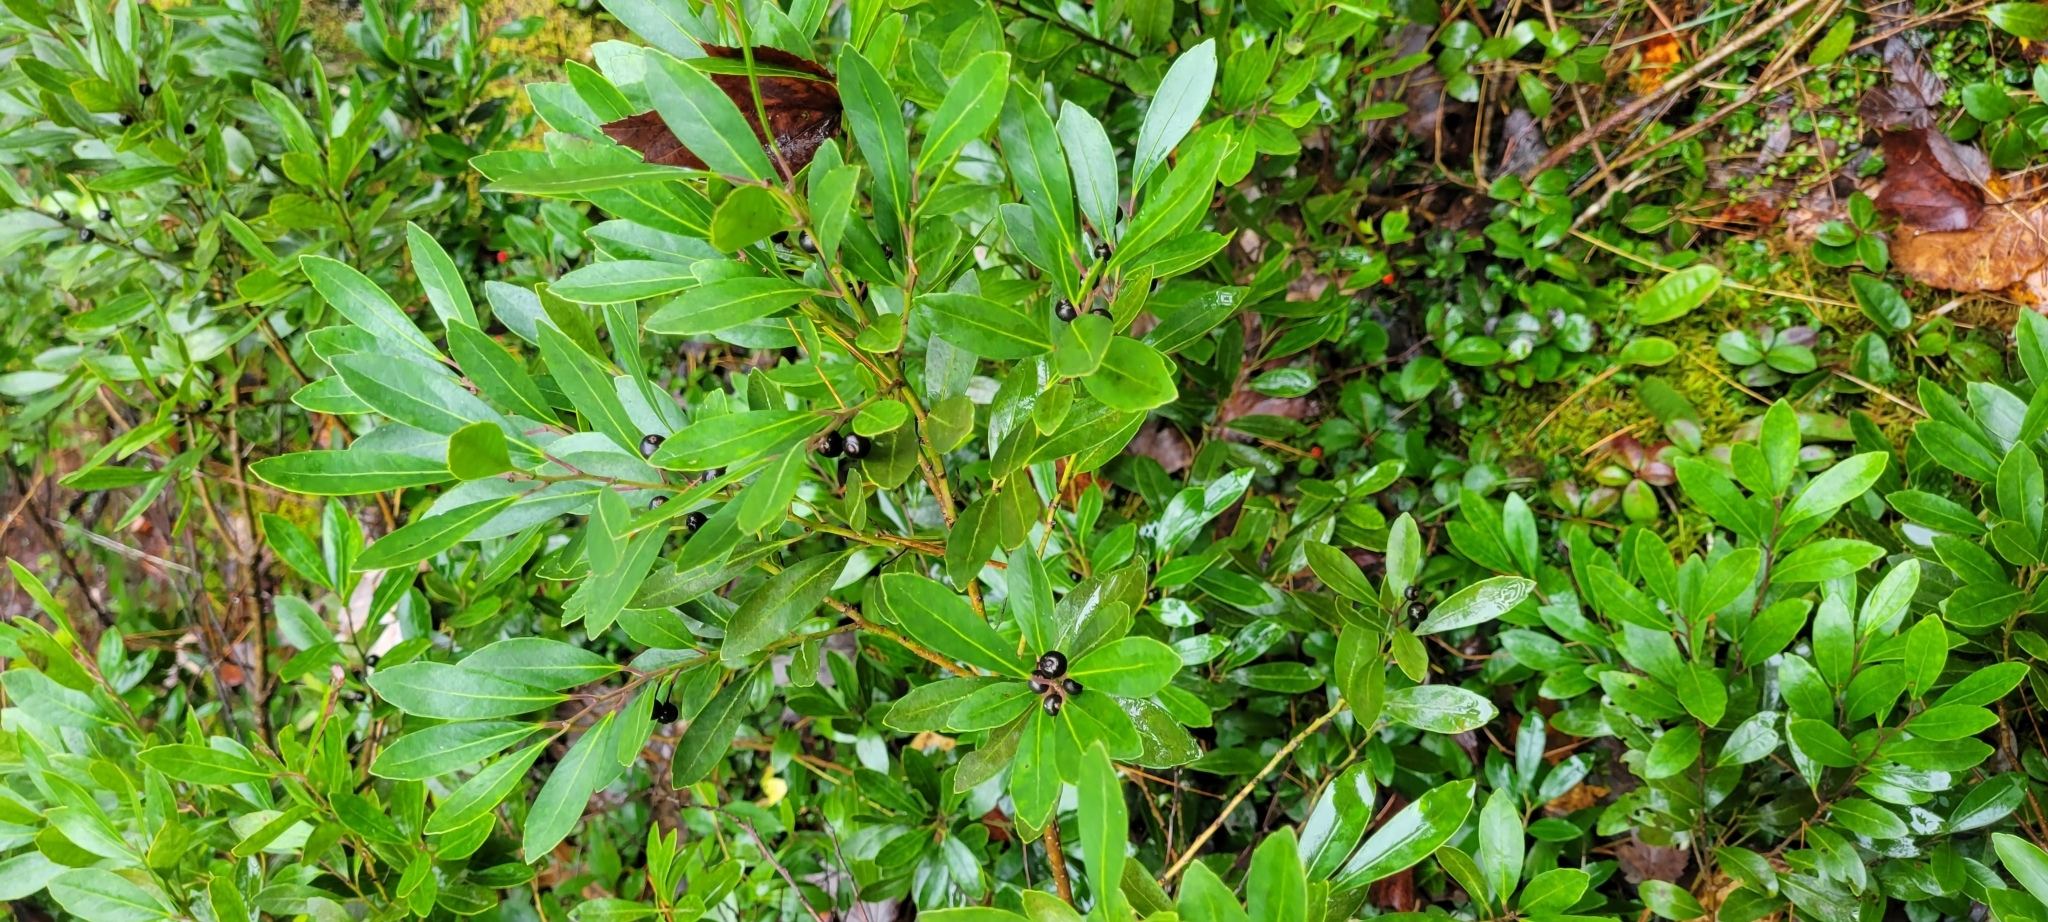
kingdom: Plantae
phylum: Tracheophyta
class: Magnoliopsida
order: Aquifoliales
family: Aquifoliaceae
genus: Ilex
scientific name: Ilex glabra
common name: Bitter gallberry
